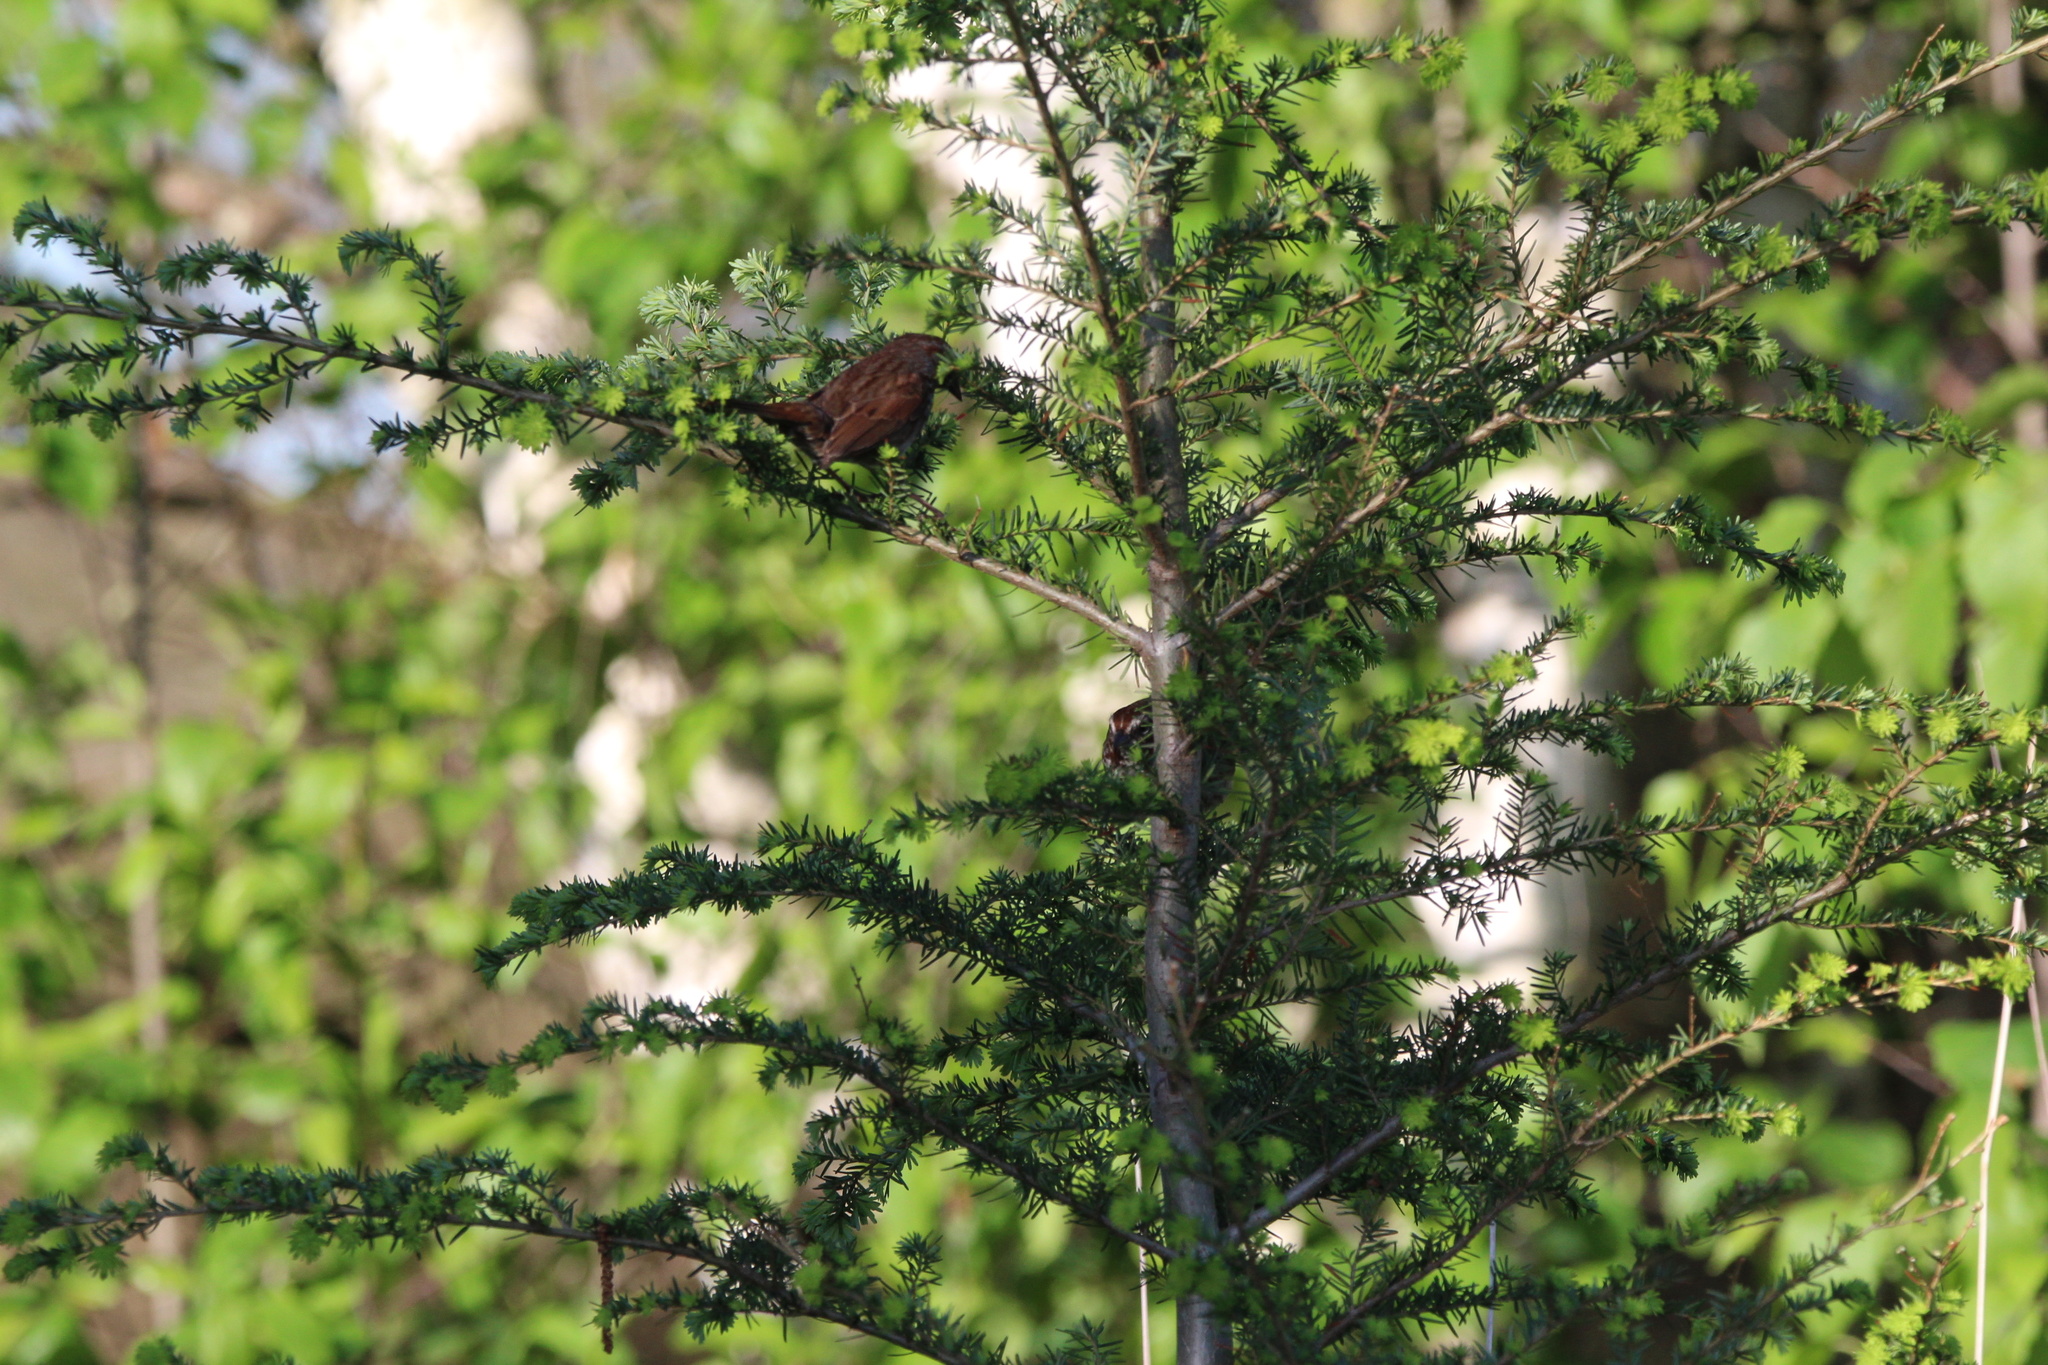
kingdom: Animalia
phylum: Chordata
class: Aves
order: Passeriformes
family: Passerellidae
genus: Melospiza
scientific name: Melospiza melodia
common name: Song sparrow
